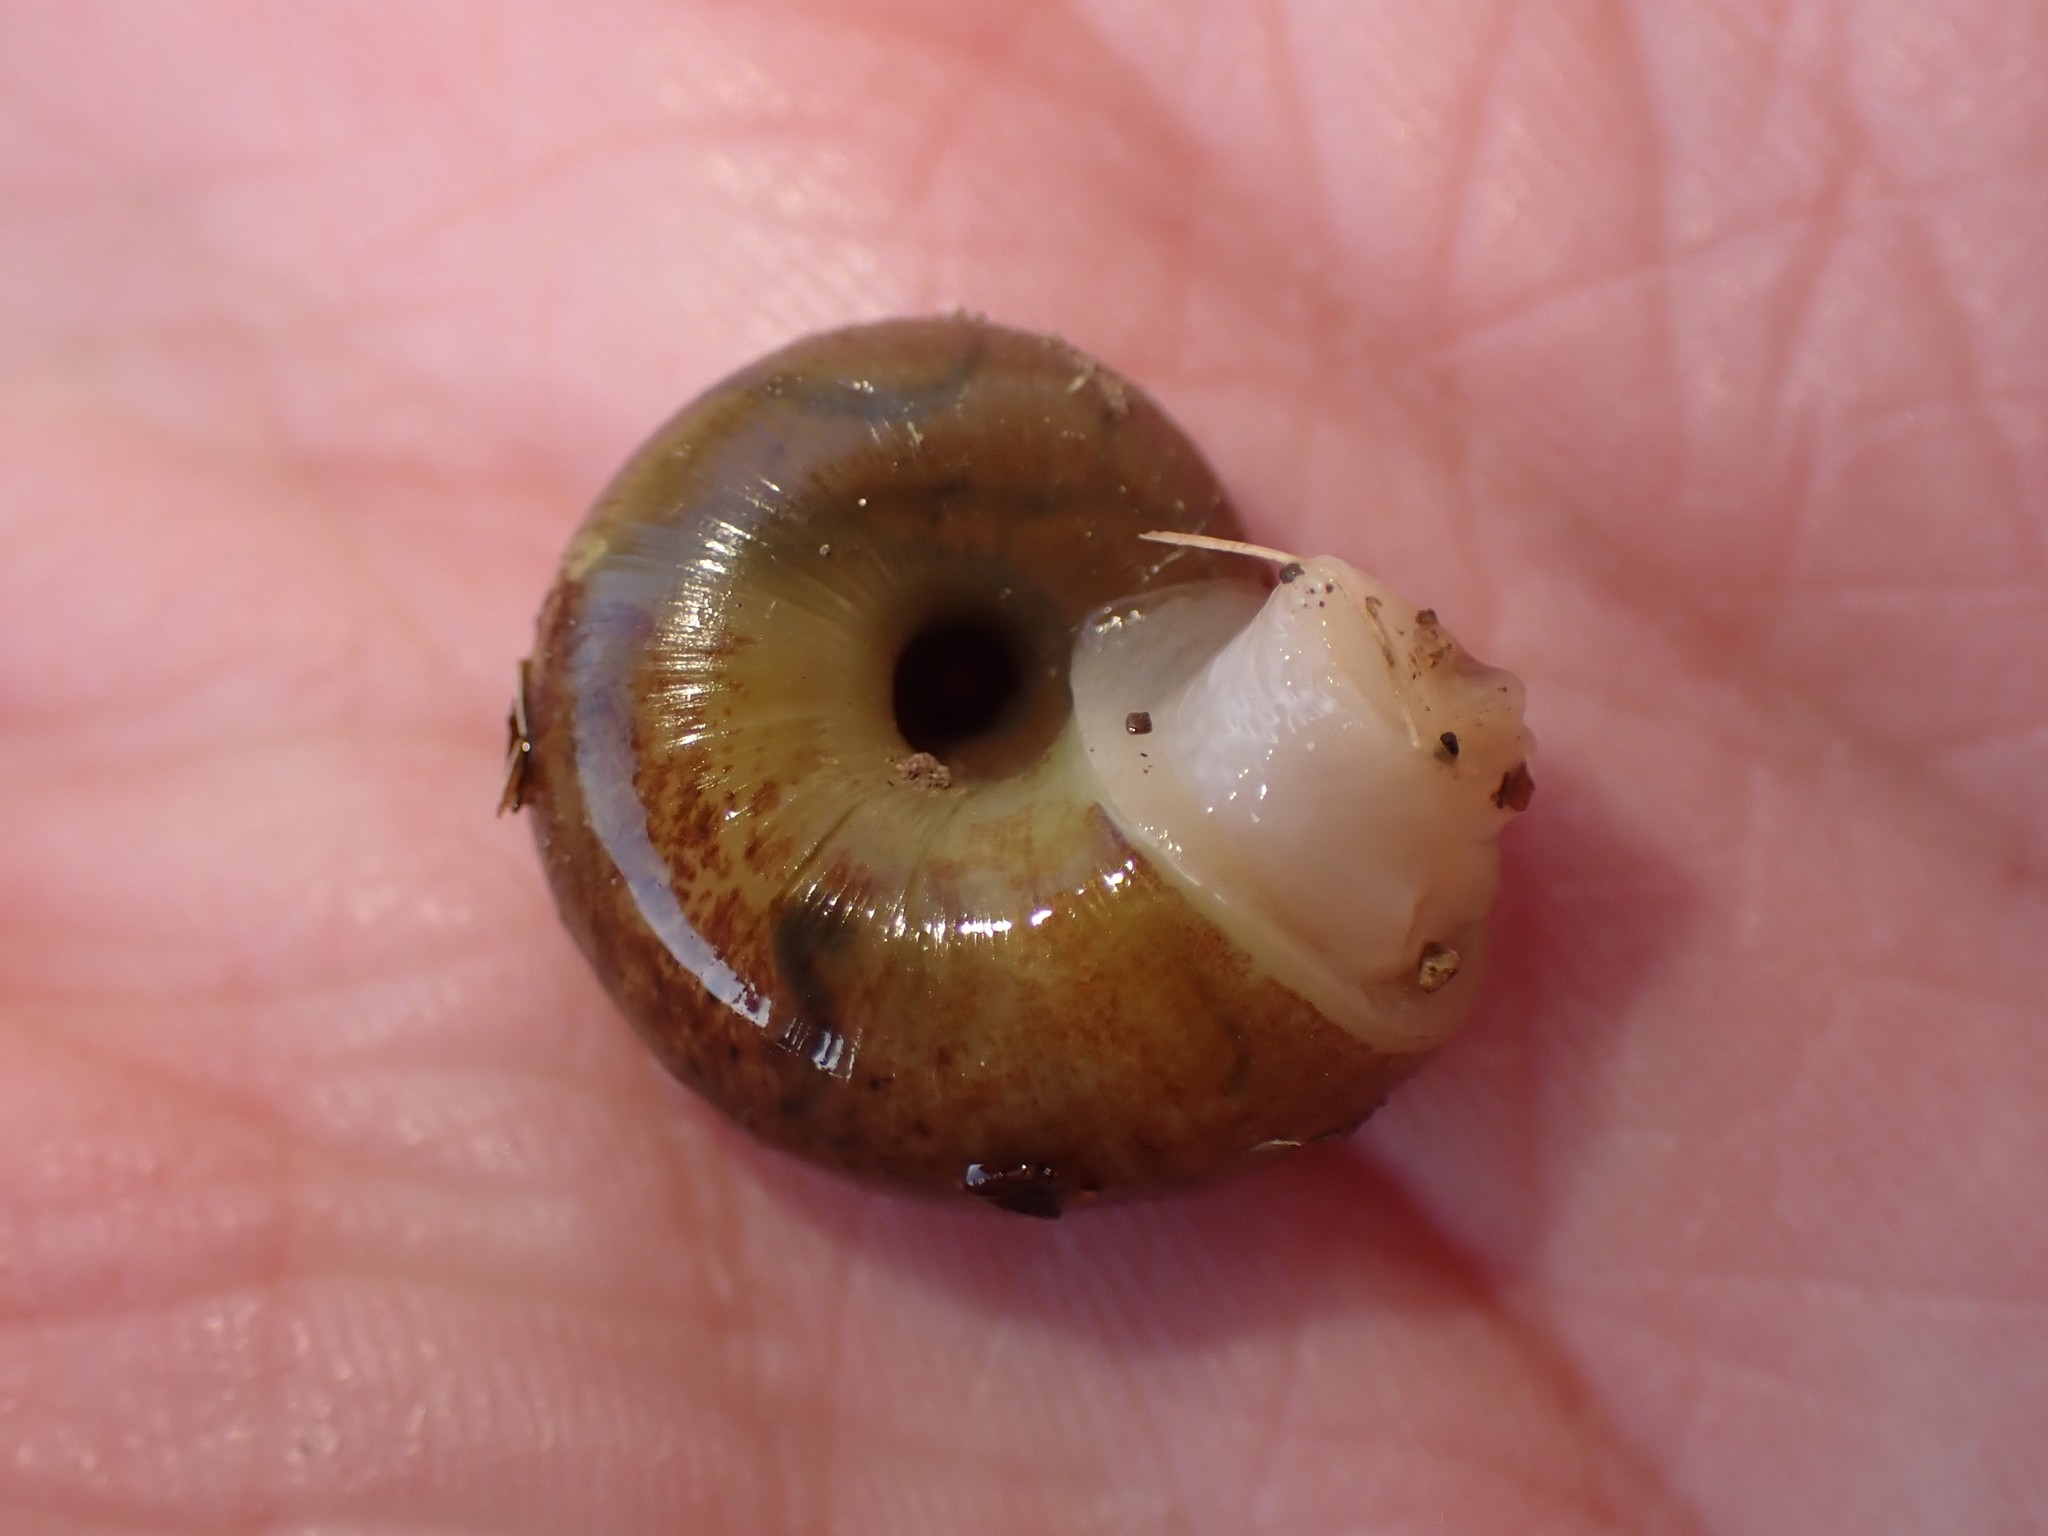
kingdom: Animalia
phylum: Mollusca
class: Gastropoda
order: Stylommatophora
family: Haplotrematidae
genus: Ancotrema
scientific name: Ancotrema sportella
